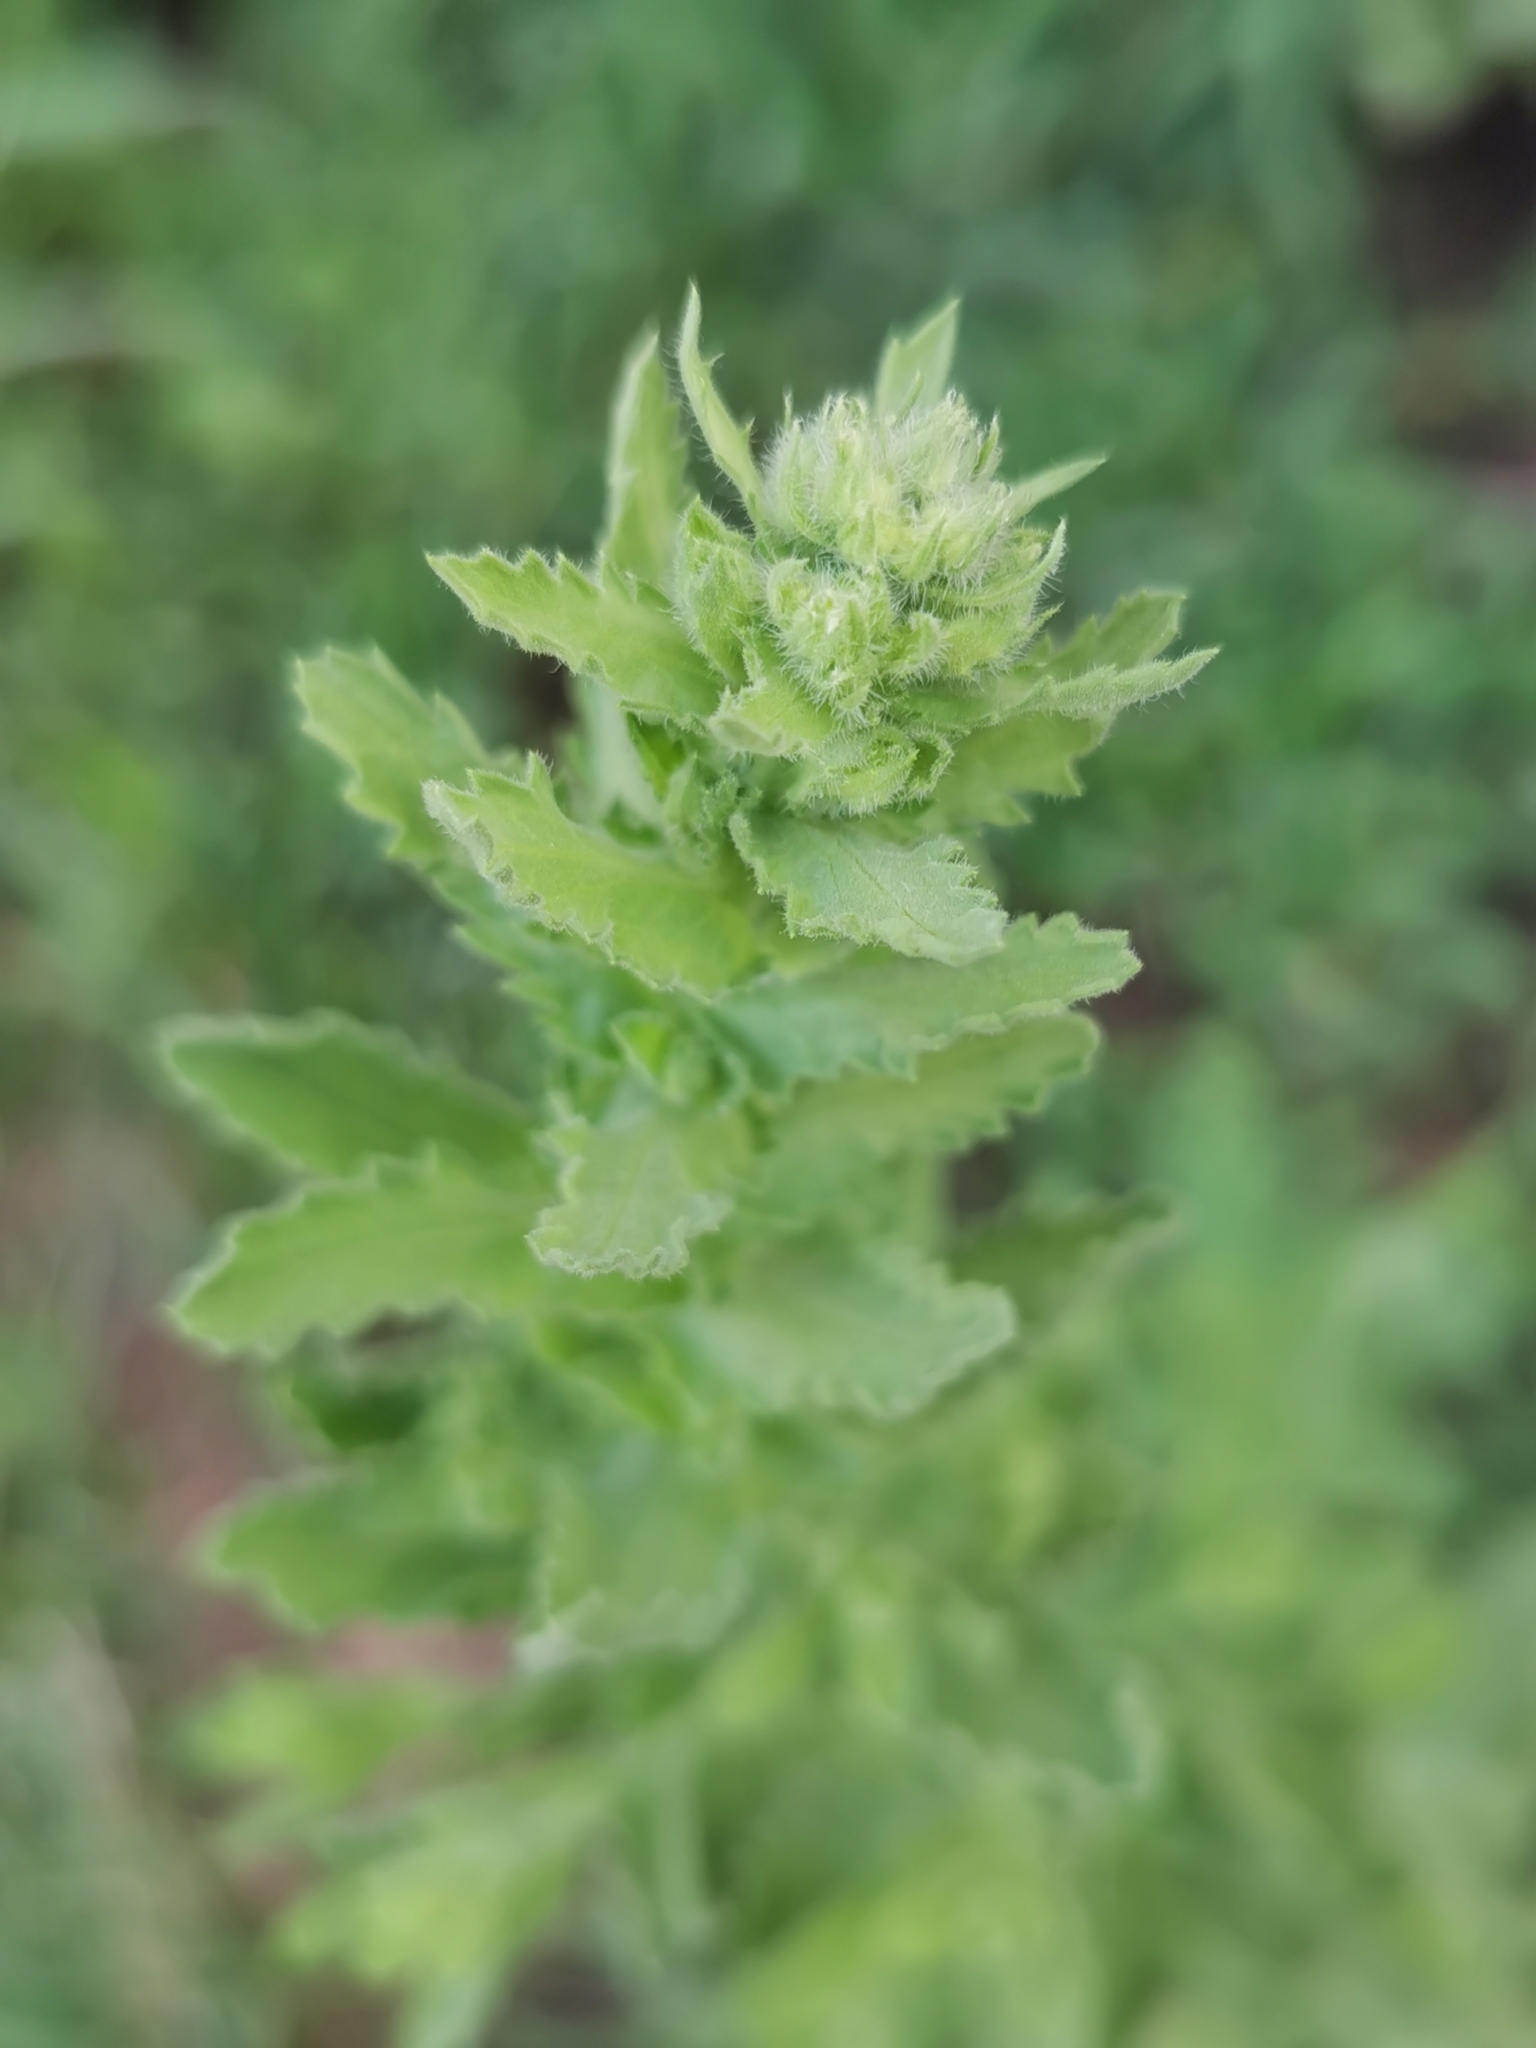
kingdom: Plantae
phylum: Tracheophyta
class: Magnoliopsida
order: Asterales
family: Asteraceae
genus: Laennecia
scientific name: Laennecia coulteri
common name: Coulter's woolwort
